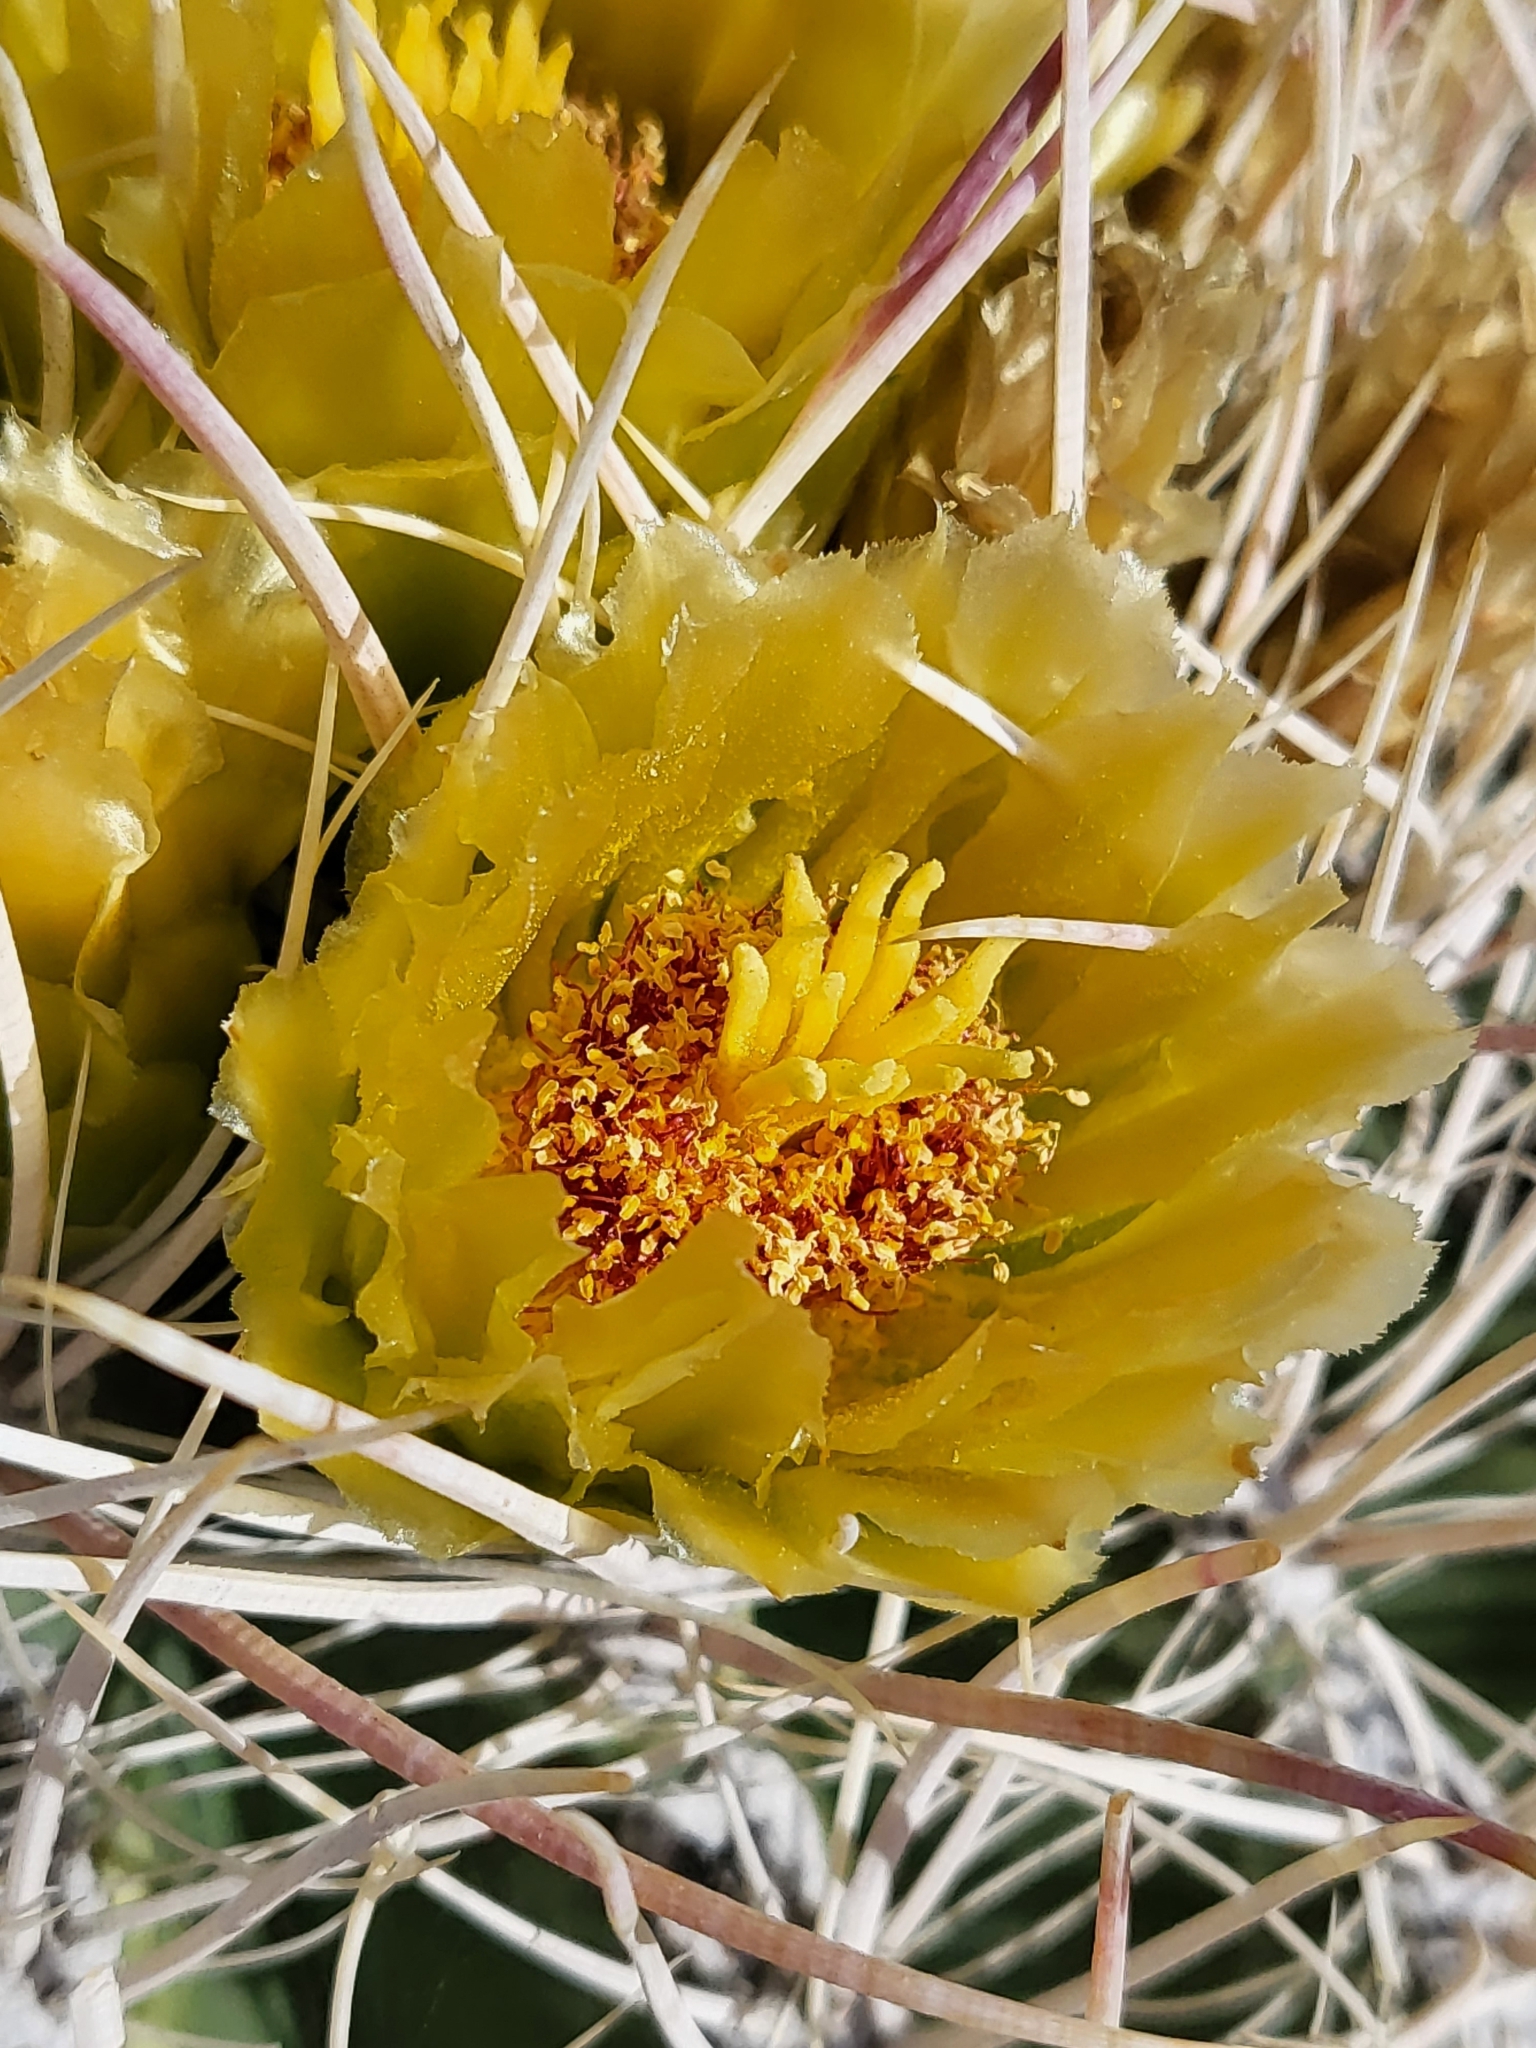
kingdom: Plantae
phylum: Tracheophyta
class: Magnoliopsida
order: Caryophyllales
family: Cactaceae
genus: Ferocactus
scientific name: Ferocactus cylindraceus
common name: California barrel cactus
